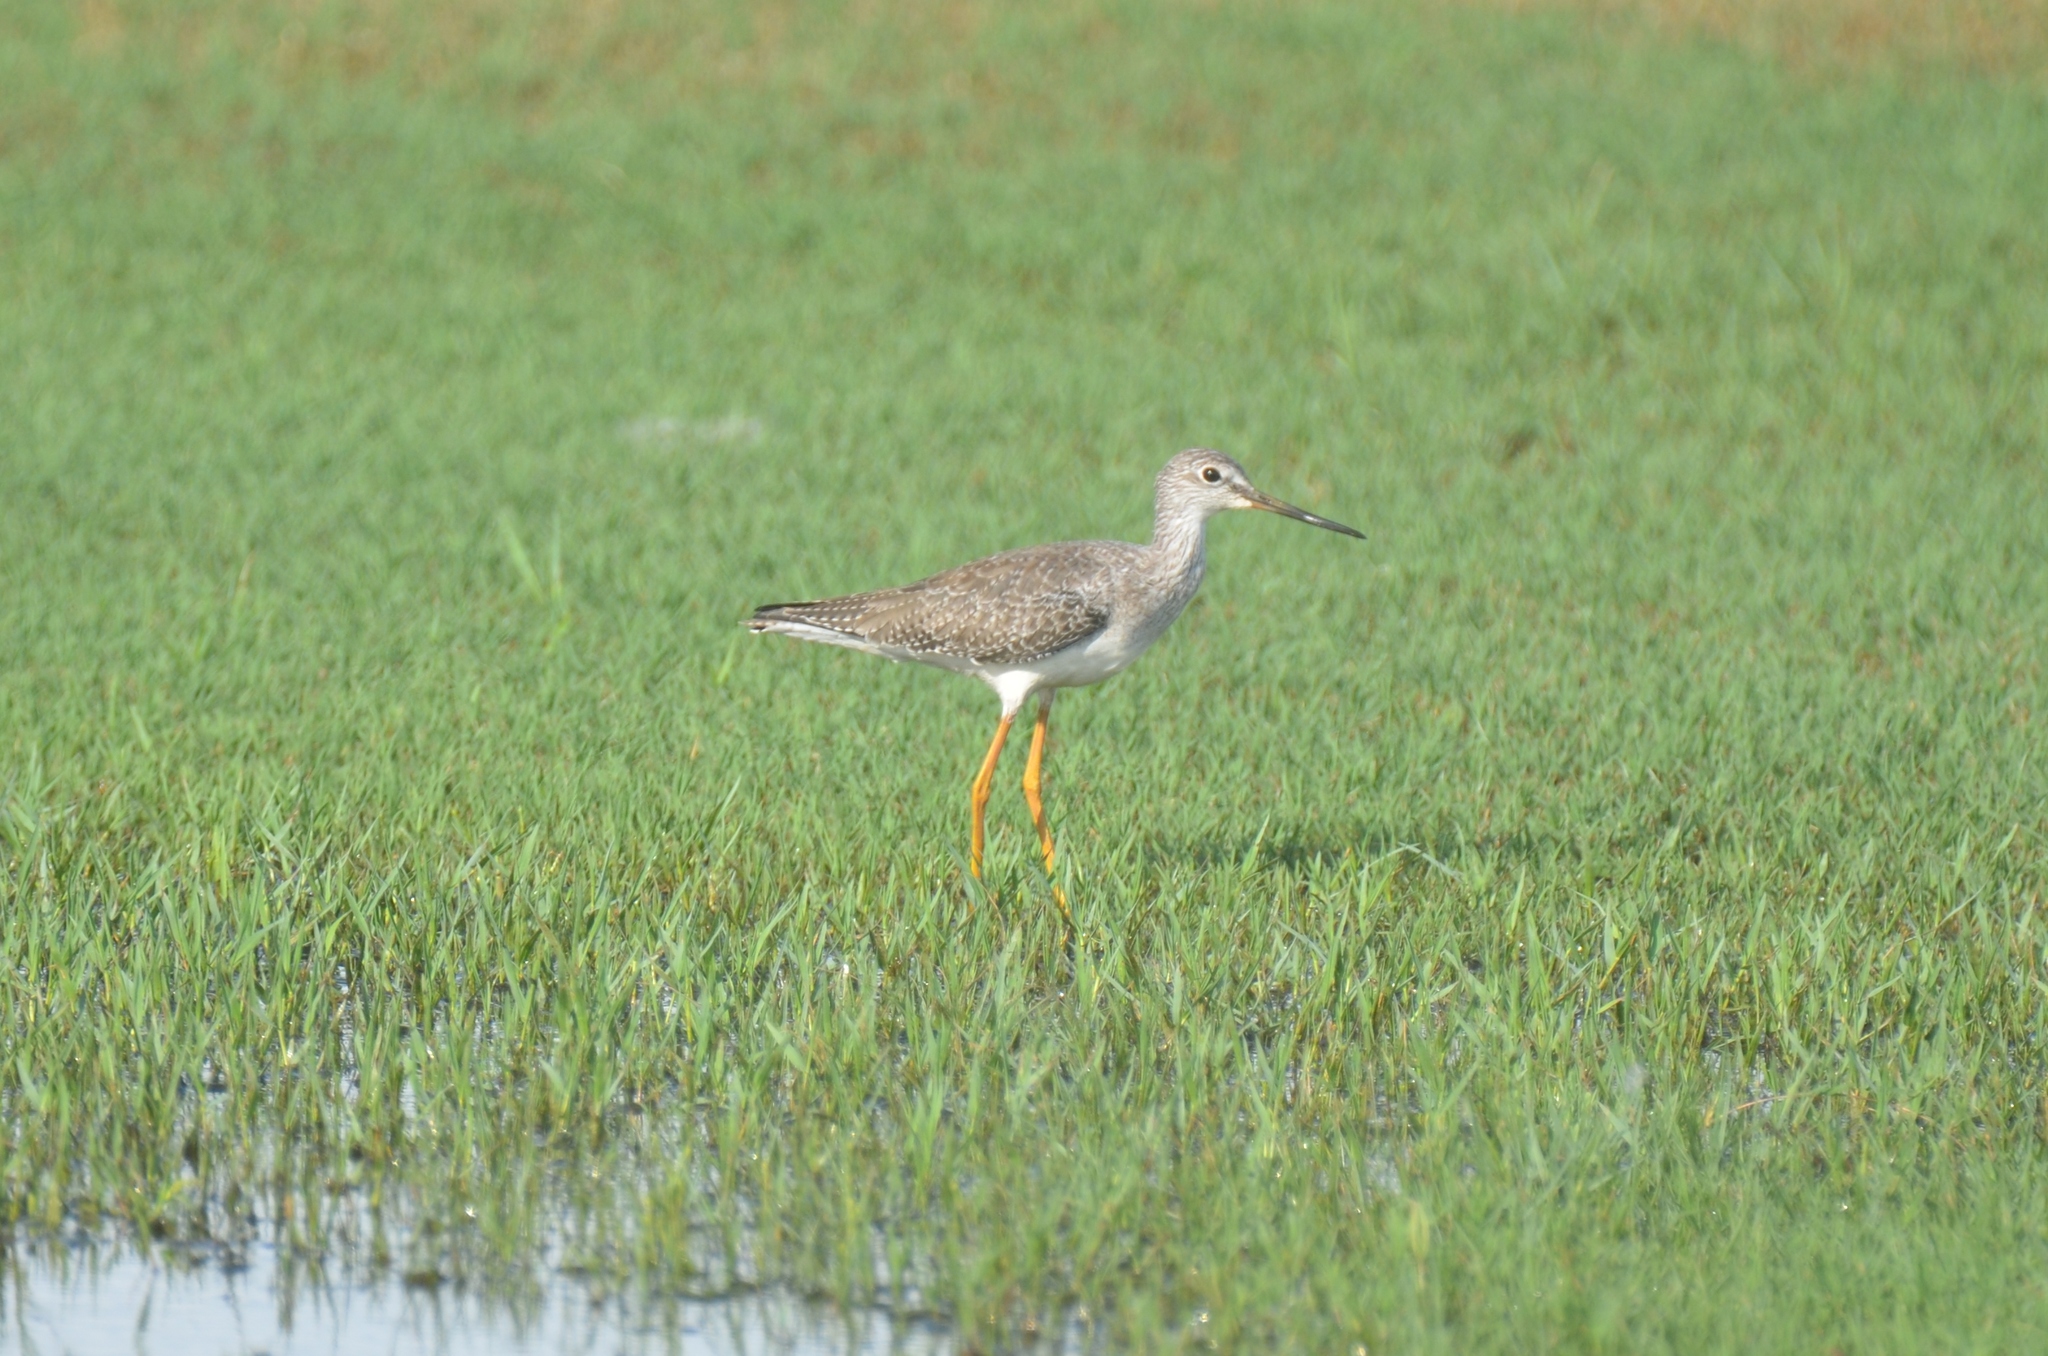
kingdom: Animalia
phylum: Chordata
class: Aves
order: Charadriiformes
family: Scolopacidae
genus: Tringa
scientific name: Tringa melanoleuca
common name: Greater yellowlegs
